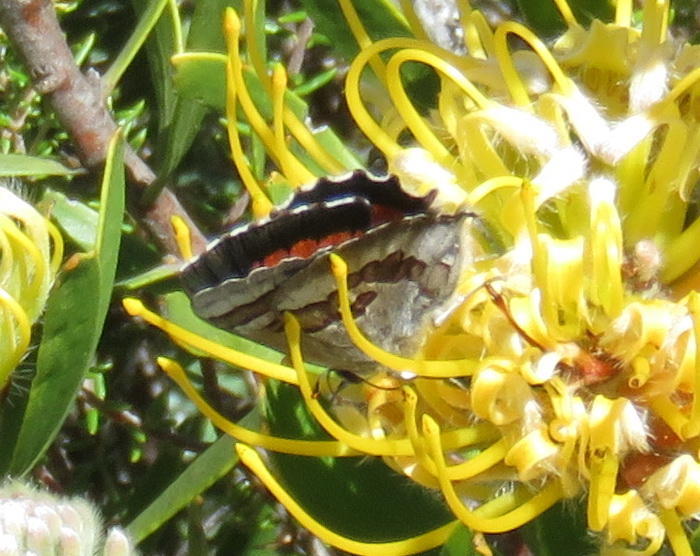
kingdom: Animalia
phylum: Arthropoda
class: Insecta
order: Lepidoptera
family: Lycaenidae
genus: Capys
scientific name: Capys alpheus
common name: Orange-banded protea butterfly
